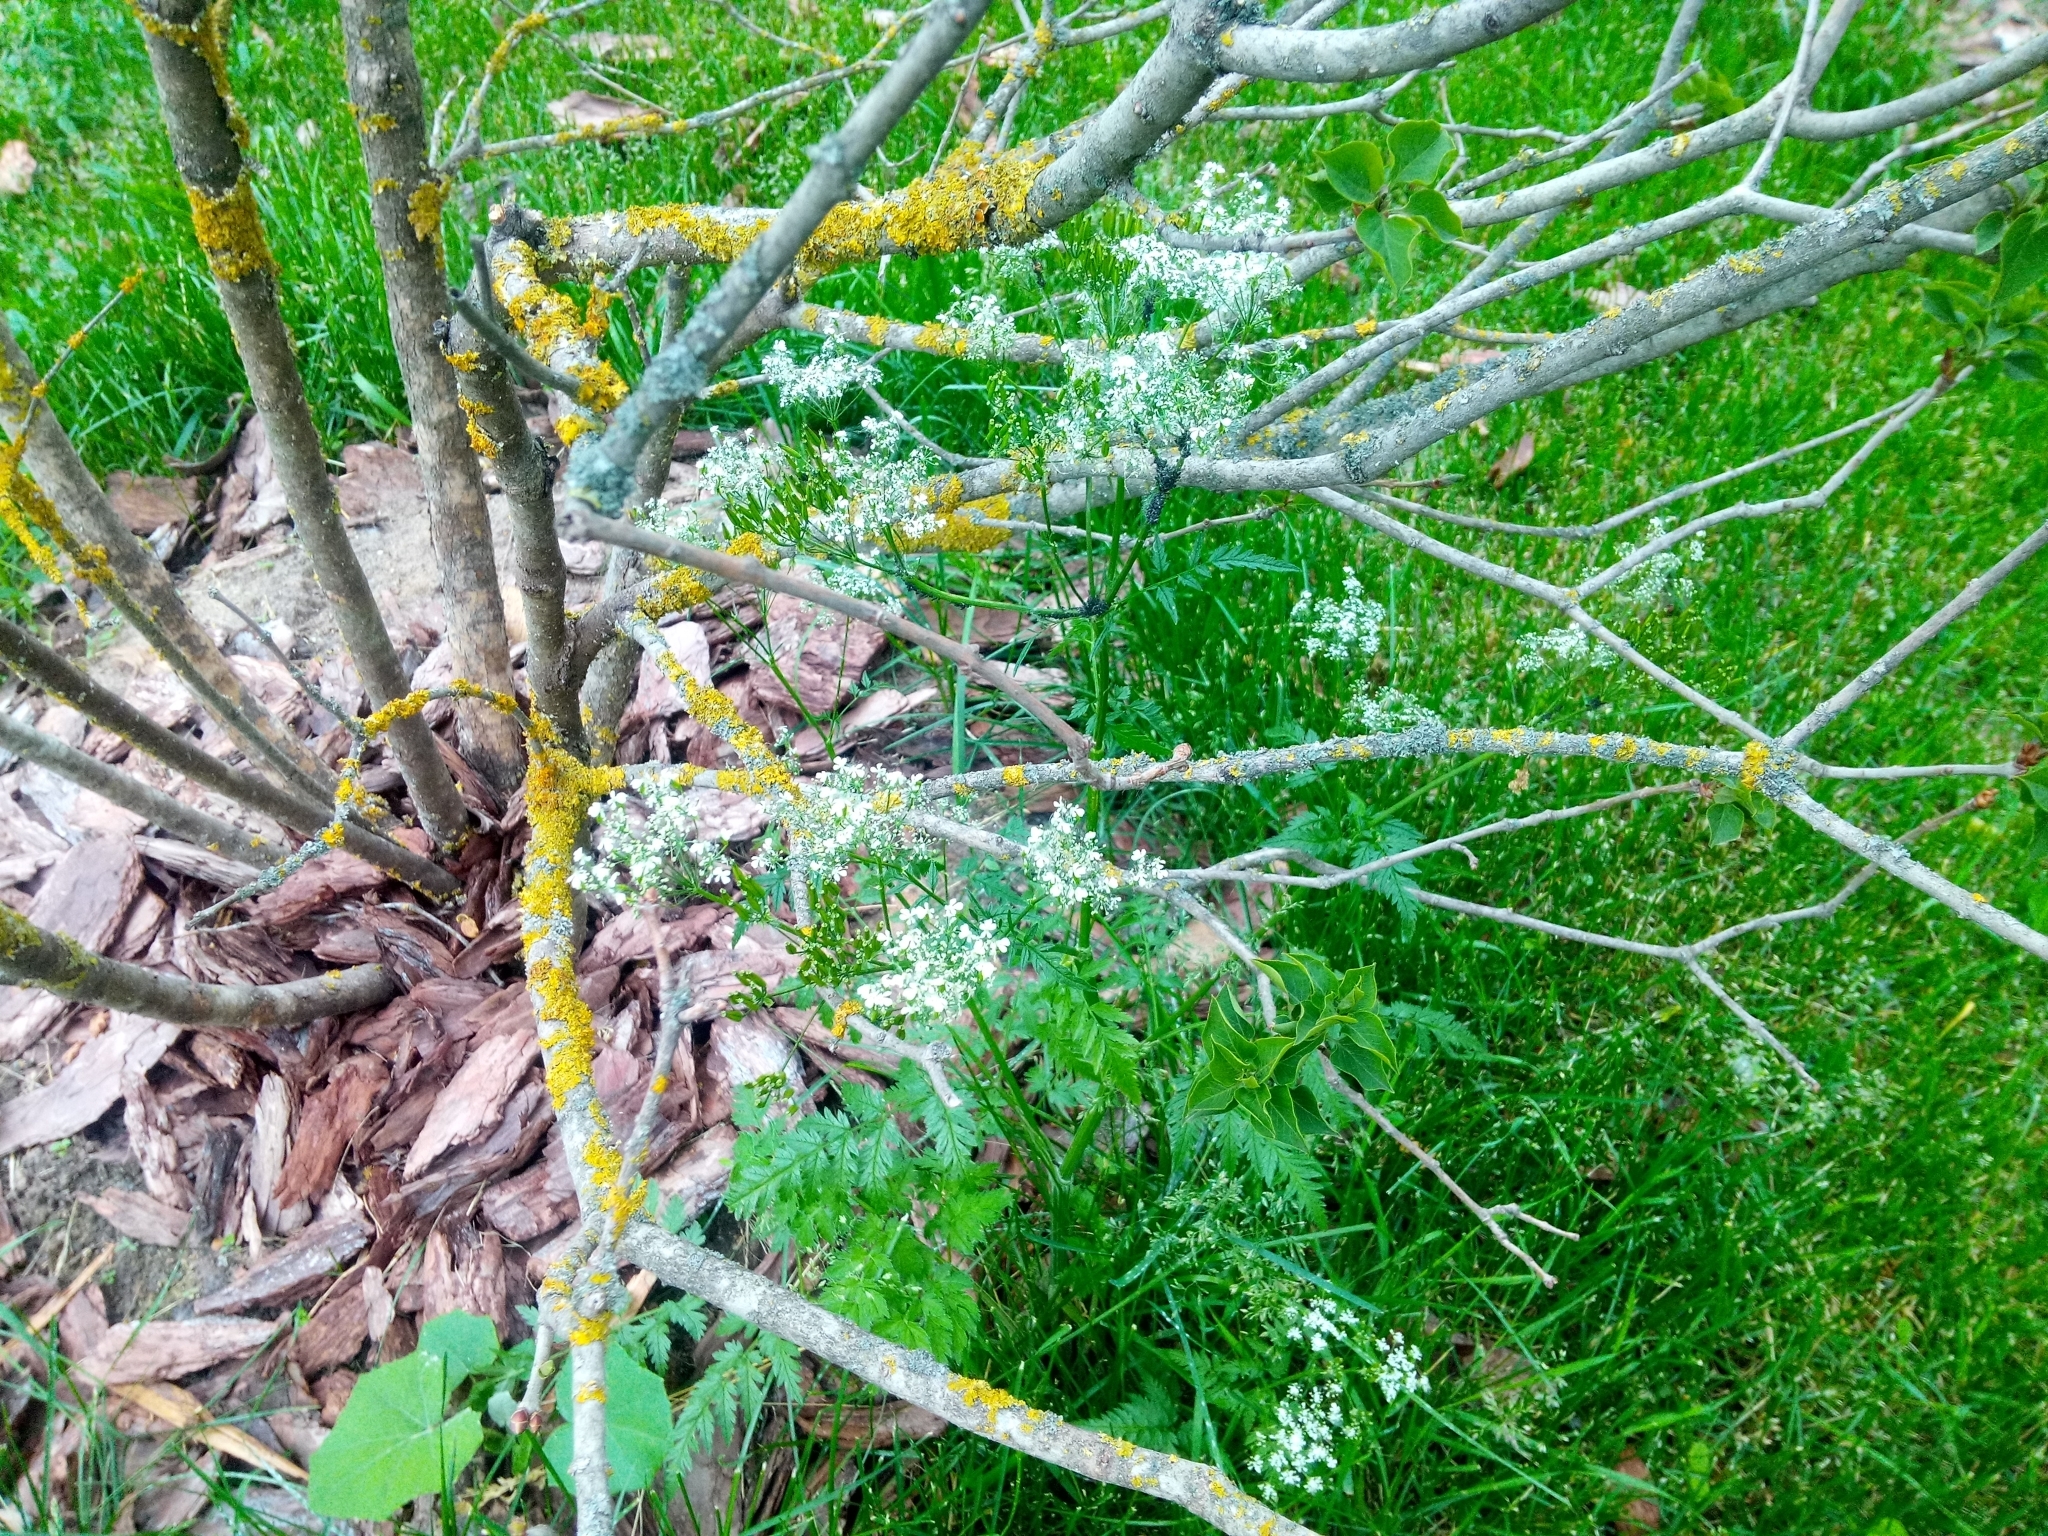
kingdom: Plantae
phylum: Tracheophyta
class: Magnoliopsida
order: Apiales
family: Apiaceae
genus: Anthriscus
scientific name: Anthriscus sylvestris
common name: Cow parsley
